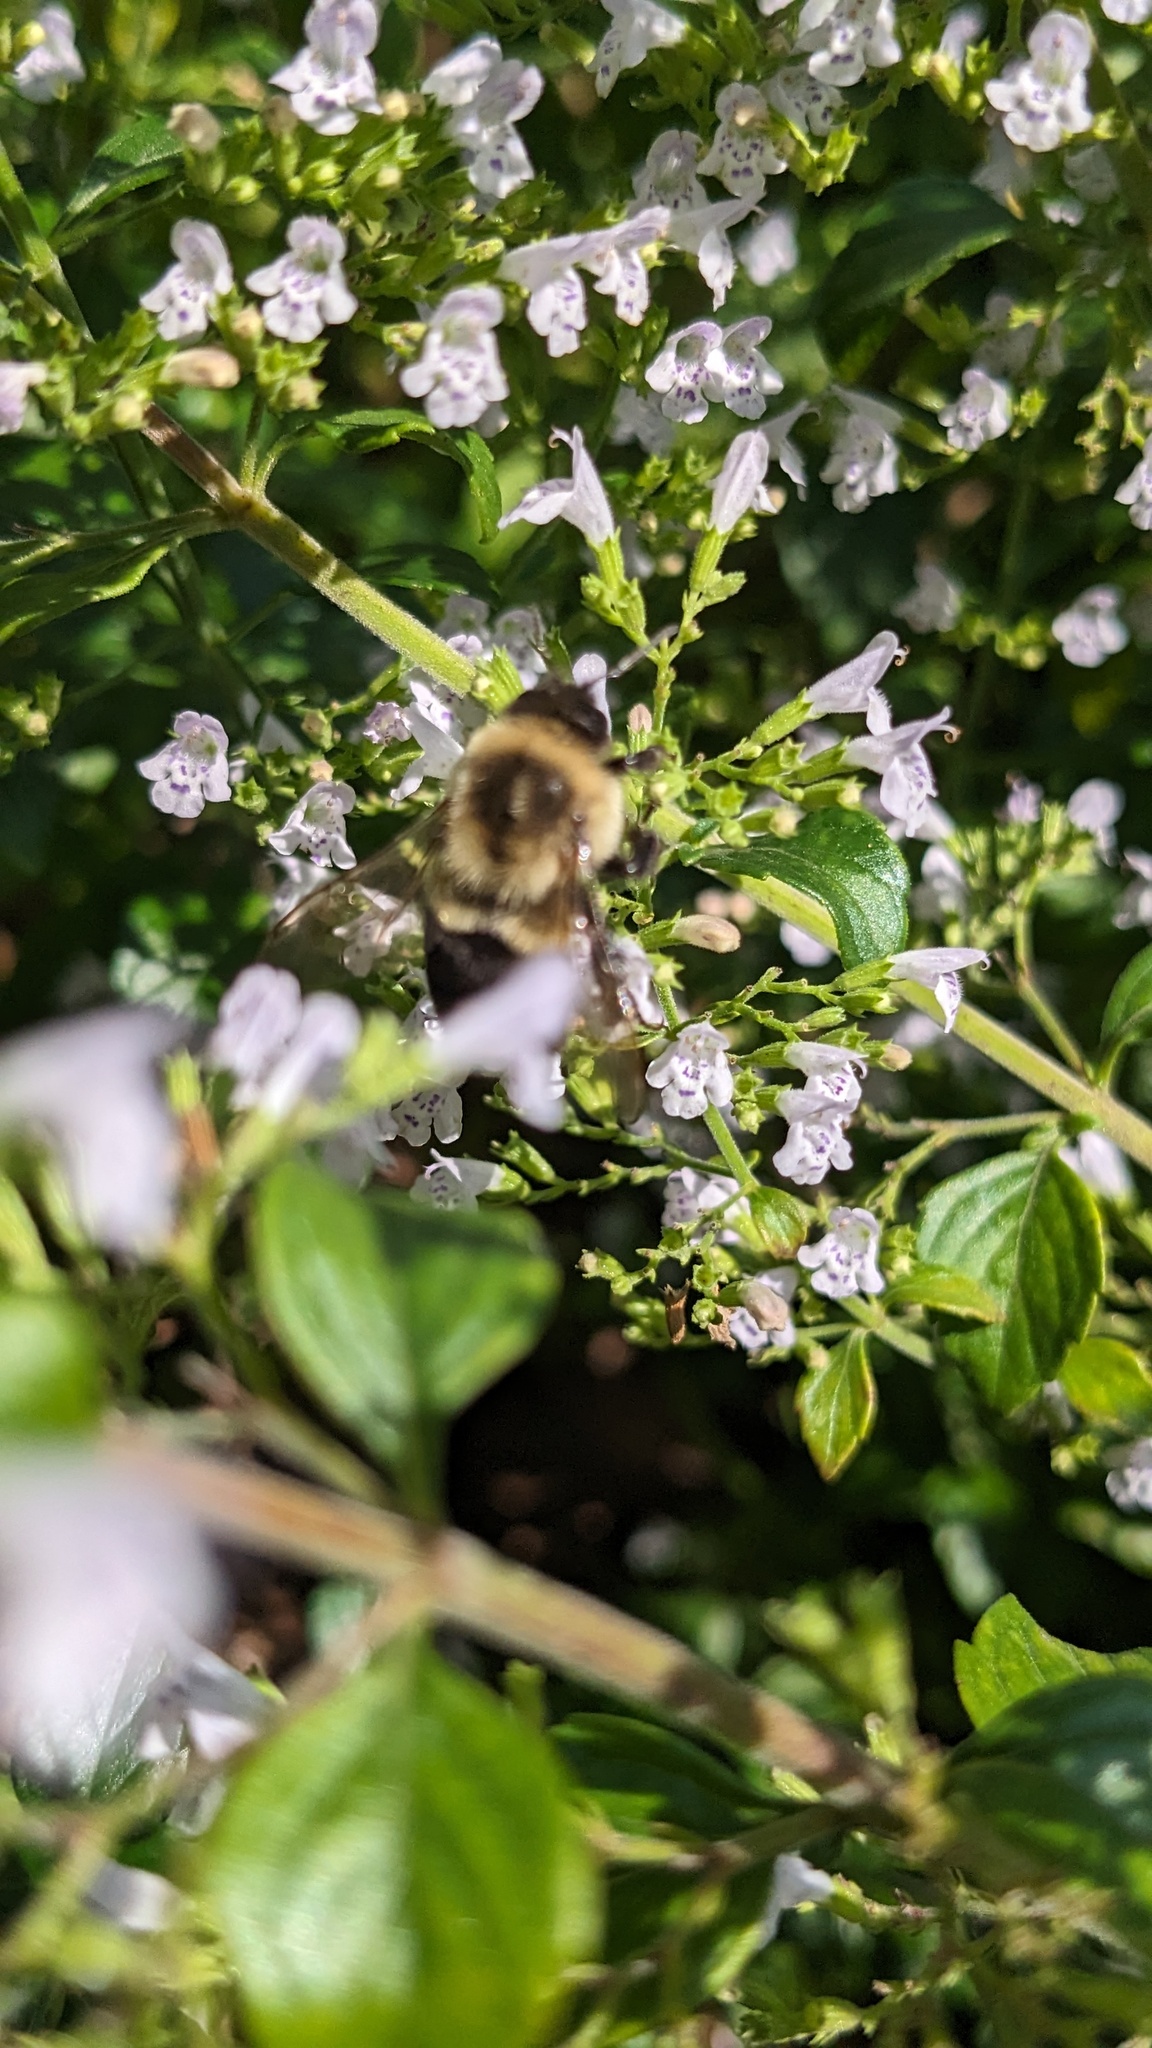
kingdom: Animalia
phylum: Arthropoda
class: Insecta
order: Hymenoptera
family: Apidae
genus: Bombus
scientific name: Bombus impatiens
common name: Common eastern bumble bee
